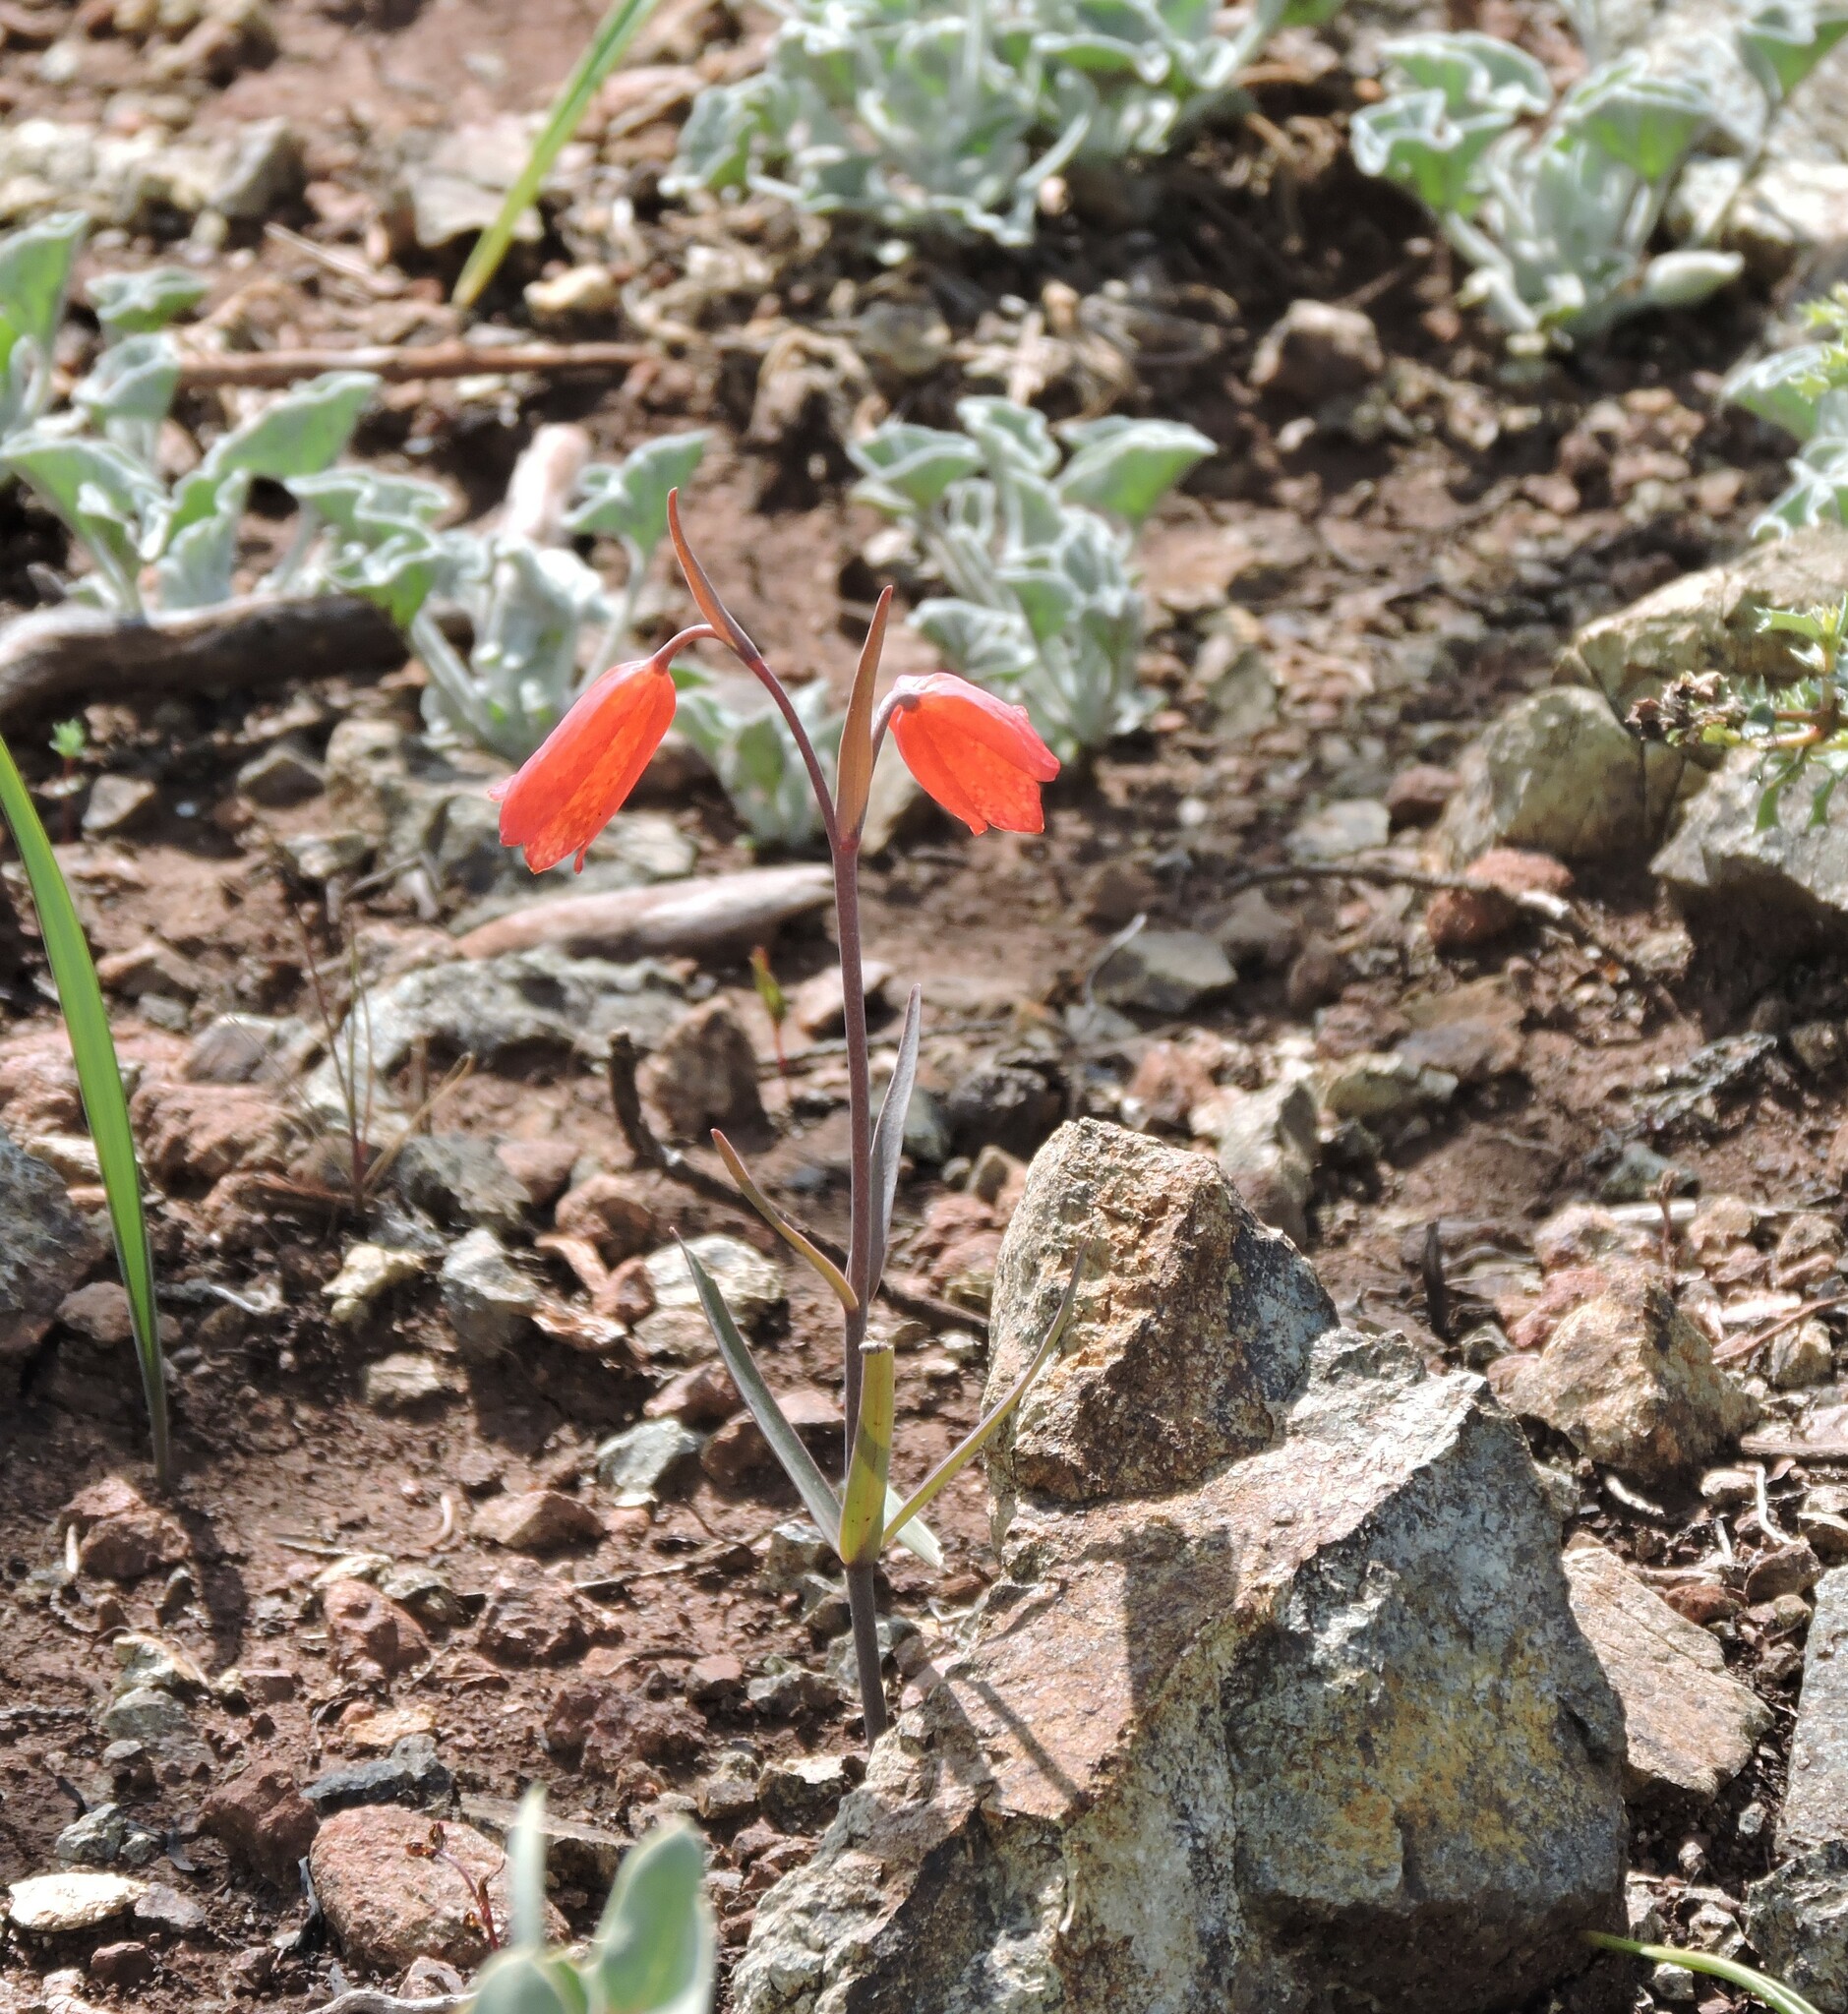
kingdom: Plantae
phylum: Tracheophyta
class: Liliopsida
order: Liliales
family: Liliaceae
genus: Fritillaria
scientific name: Fritillaria recurva
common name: Scarlet fritillary
